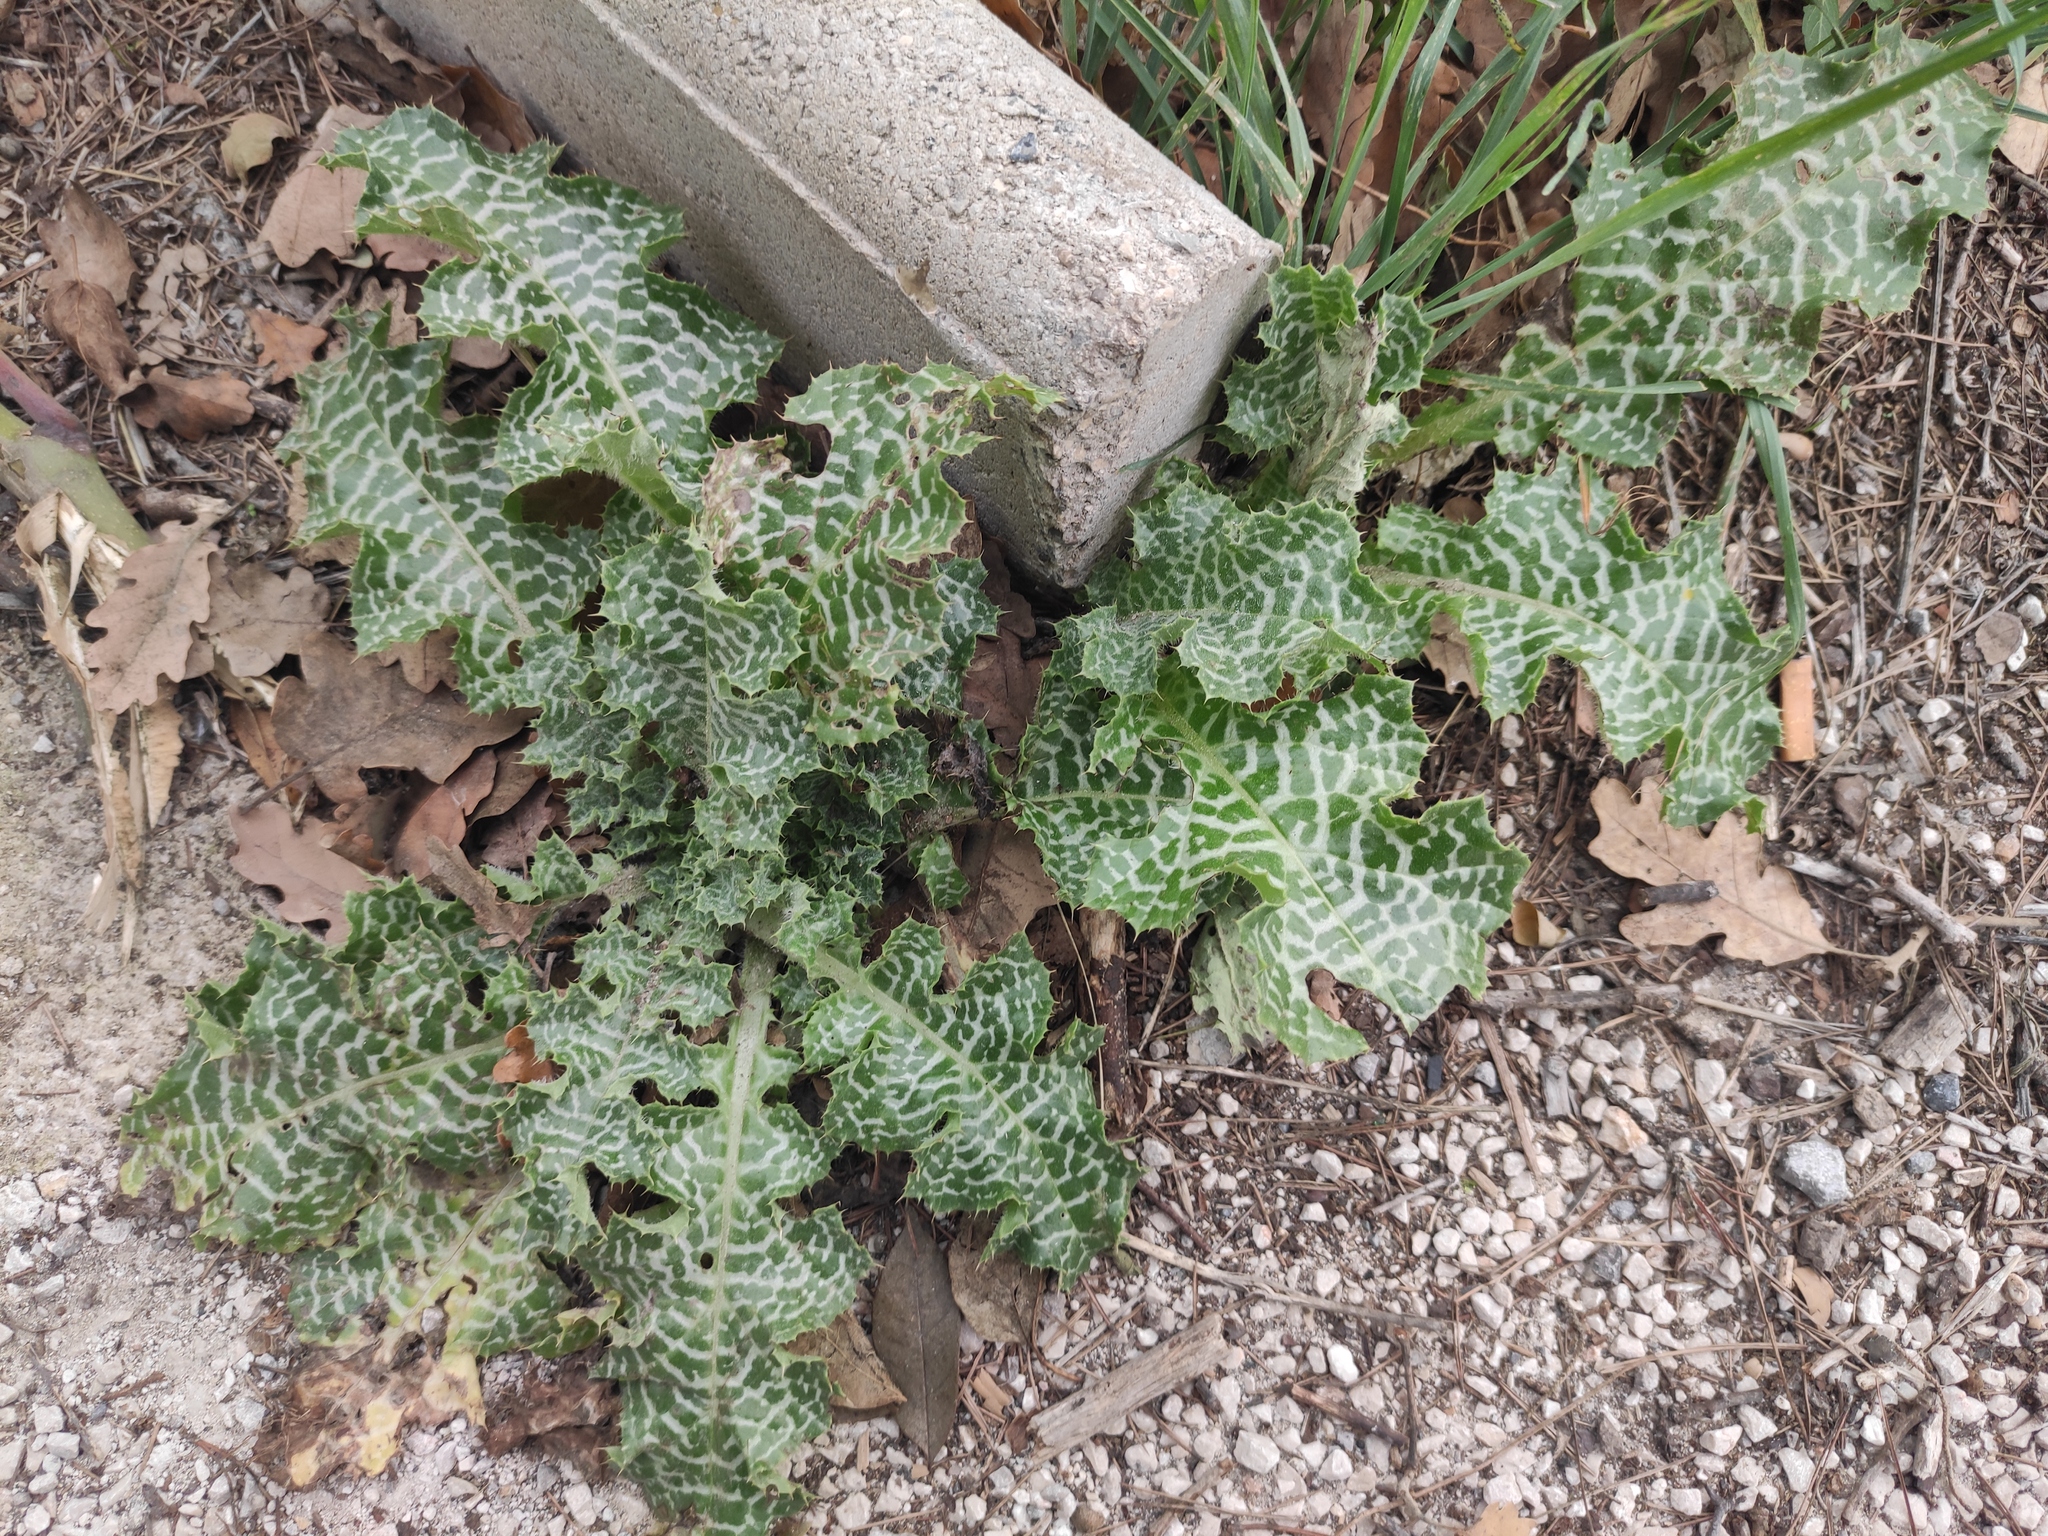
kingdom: Plantae
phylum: Tracheophyta
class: Magnoliopsida
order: Asterales
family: Asteraceae
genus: Silybum
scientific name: Silybum marianum
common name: Milk thistle
